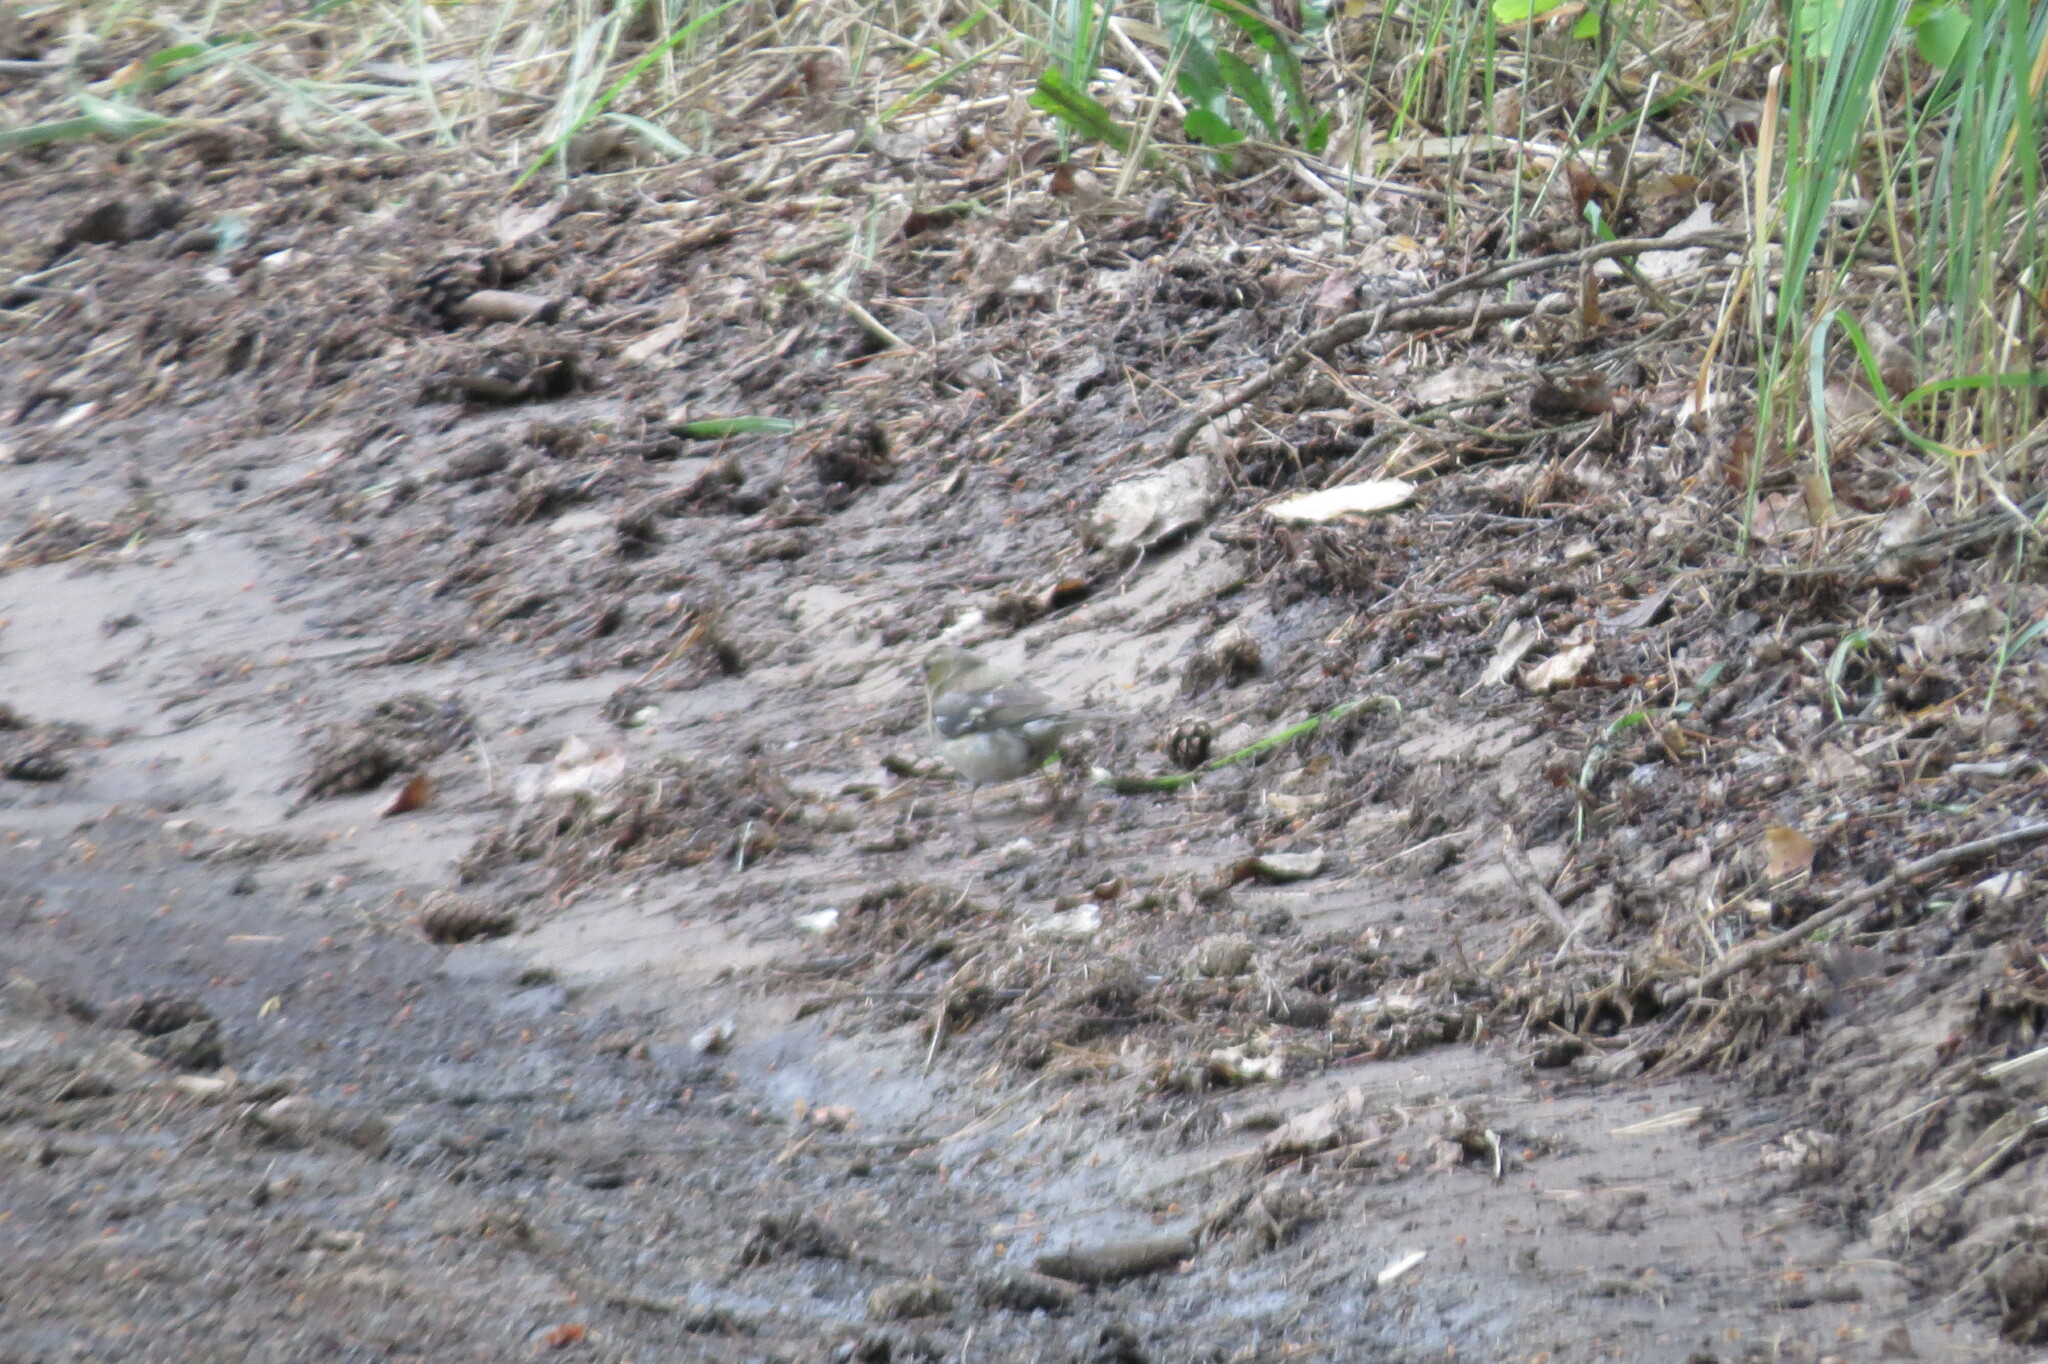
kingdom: Animalia
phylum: Chordata
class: Aves
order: Passeriformes
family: Fringillidae
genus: Fringilla
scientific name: Fringilla coelebs
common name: Common chaffinch
